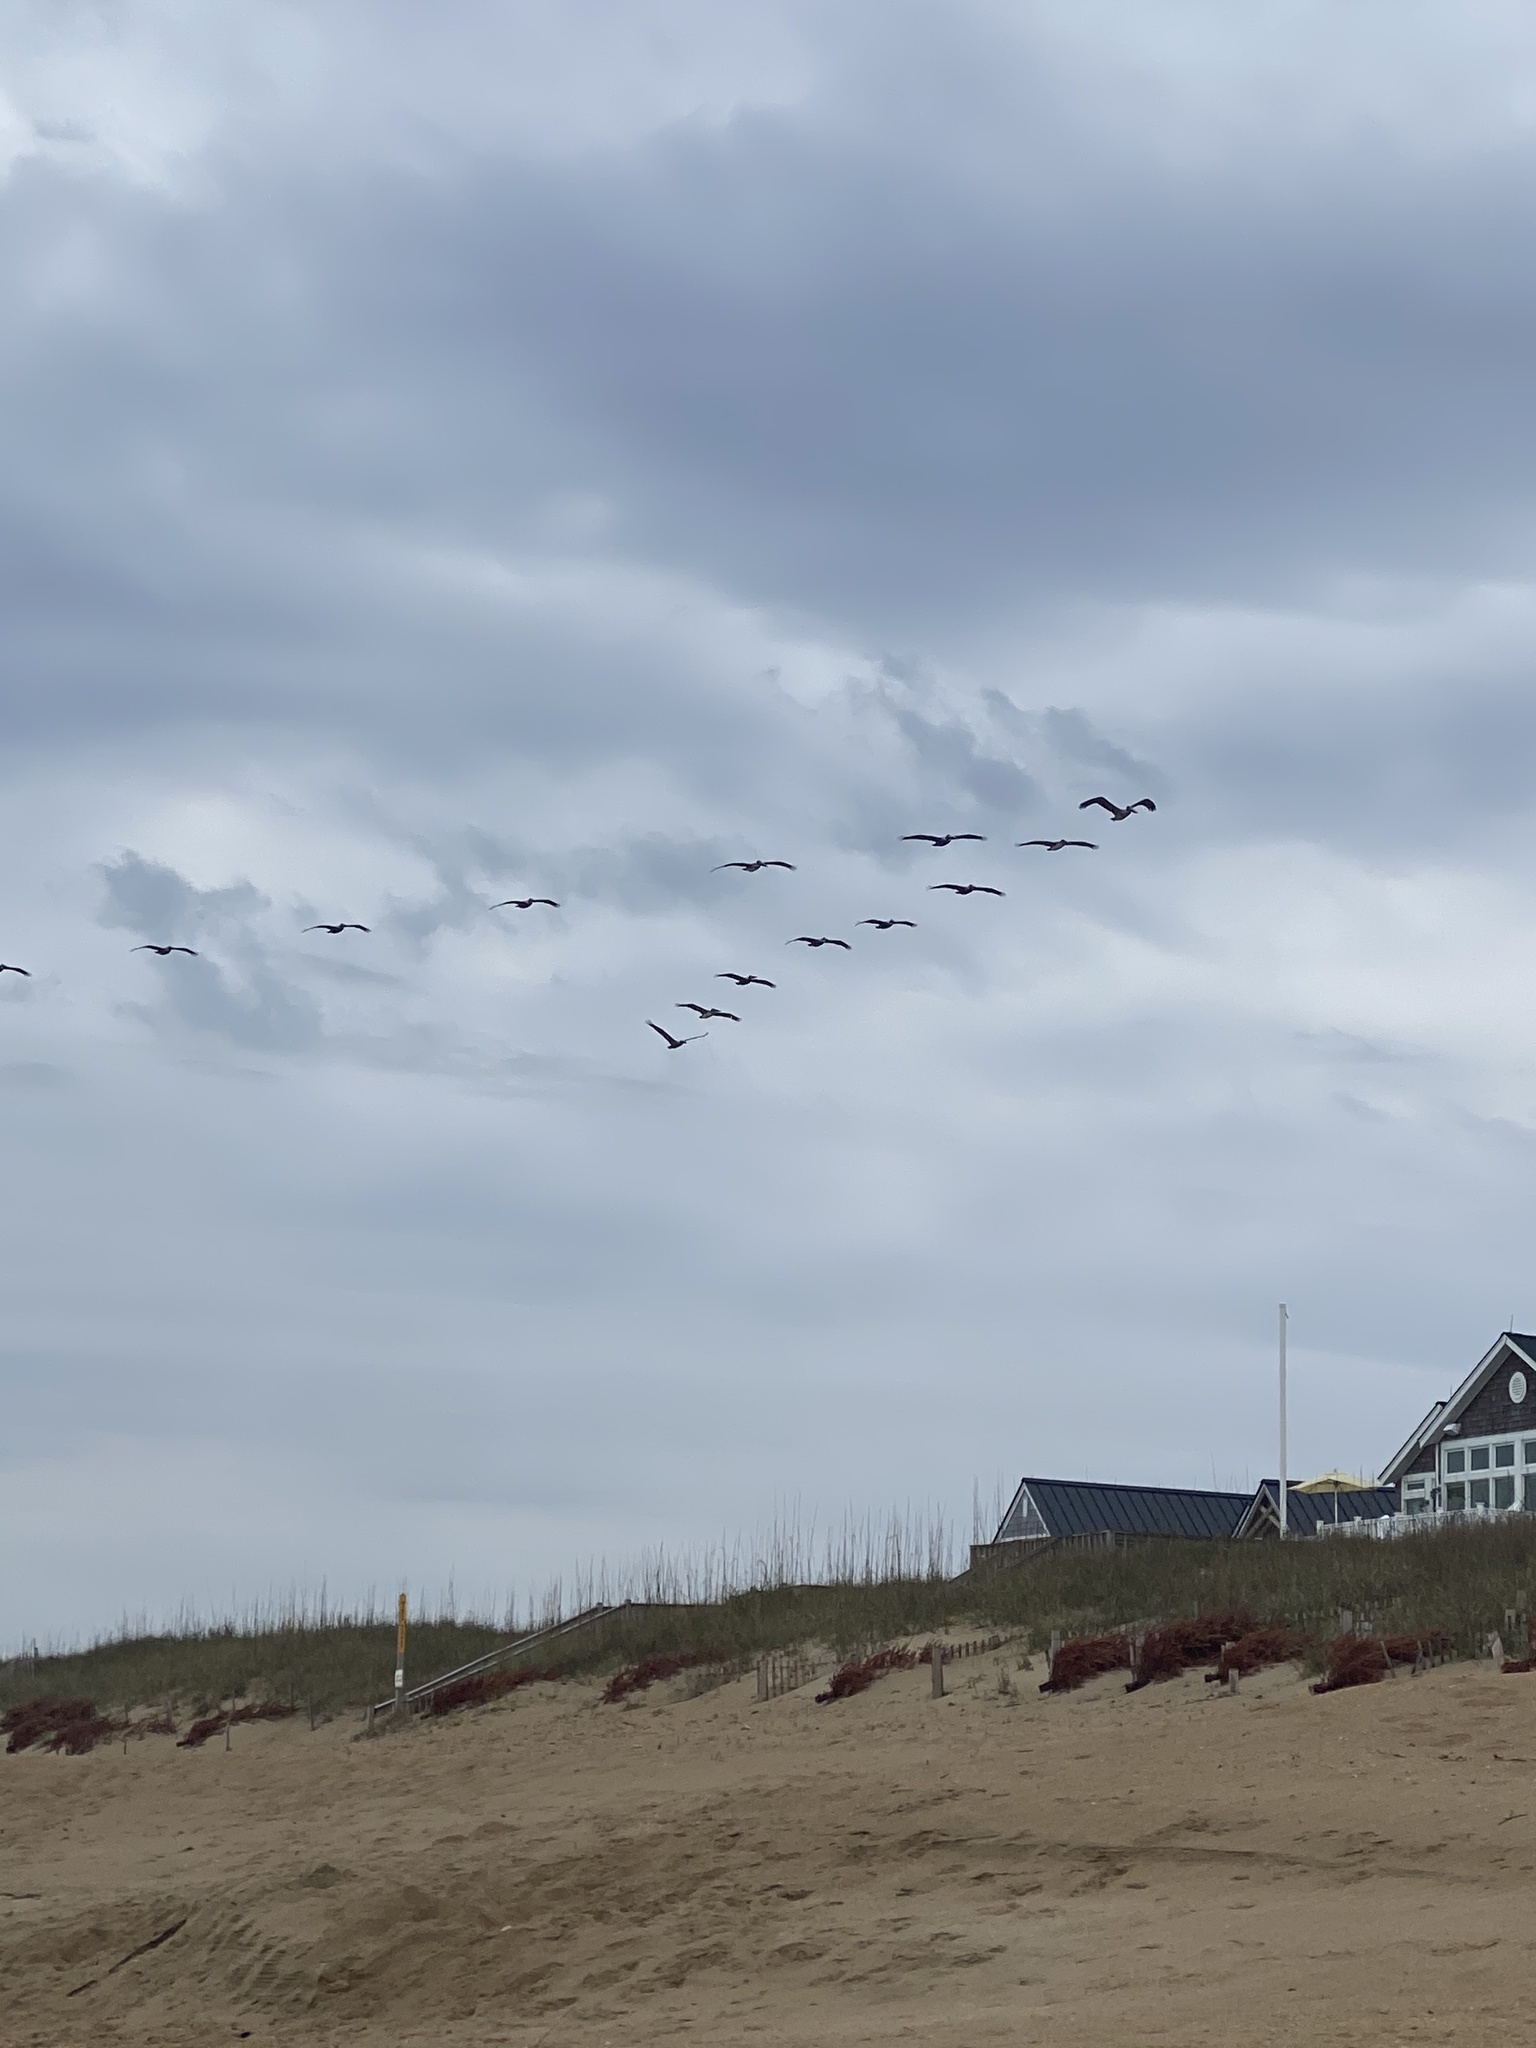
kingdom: Animalia
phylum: Chordata
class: Aves
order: Pelecaniformes
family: Pelecanidae
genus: Pelecanus
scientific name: Pelecanus occidentalis
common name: Brown pelican
